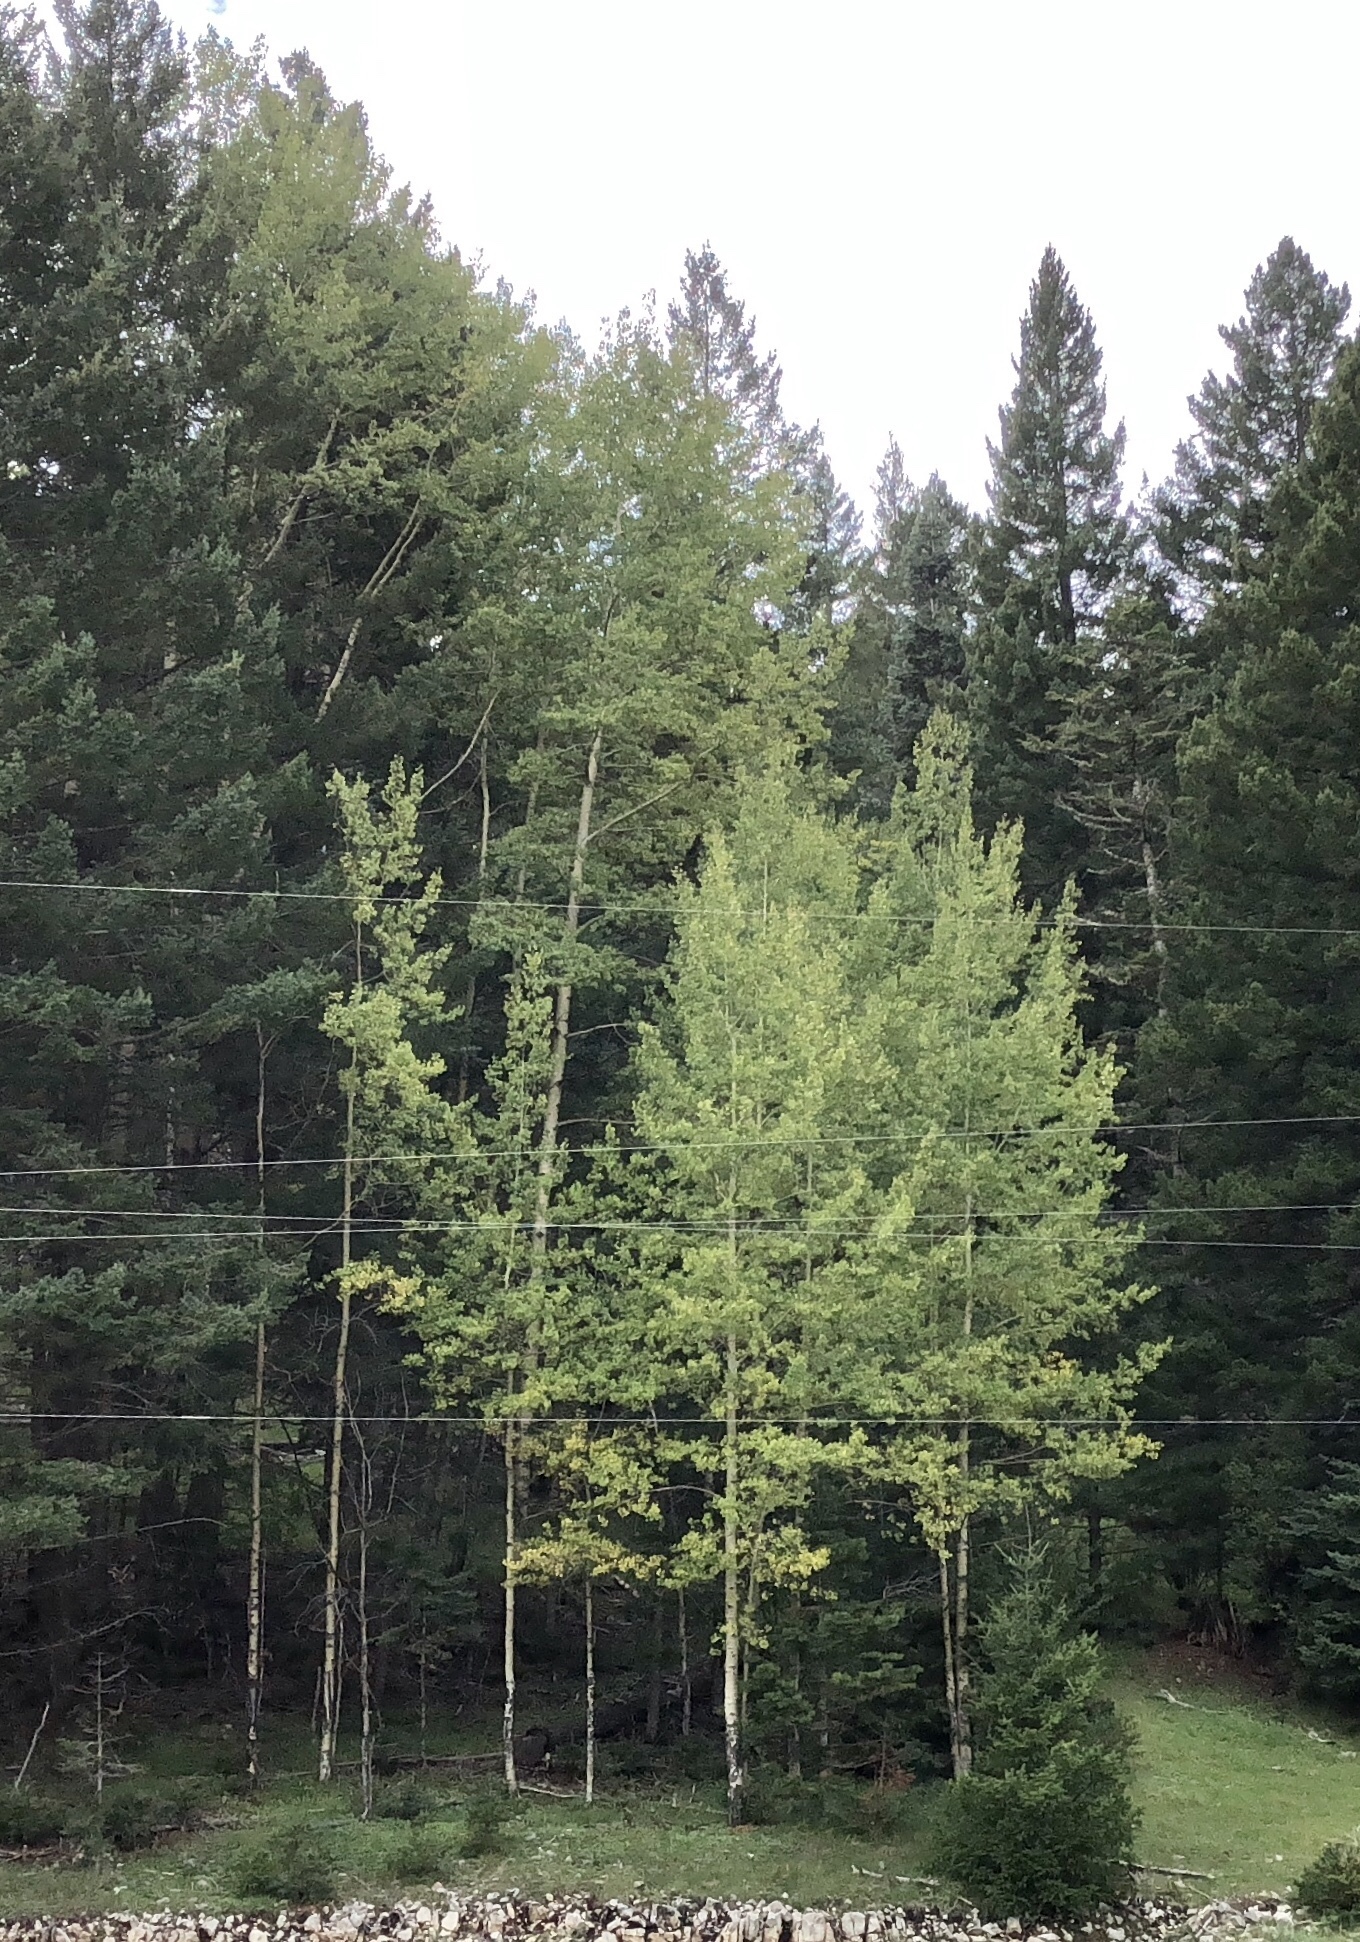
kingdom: Plantae
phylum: Tracheophyta
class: Magnoliopsida
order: Malpighiales
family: Salicaceae
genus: Populus
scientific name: Populus tremuloides
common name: Quaking aspen
